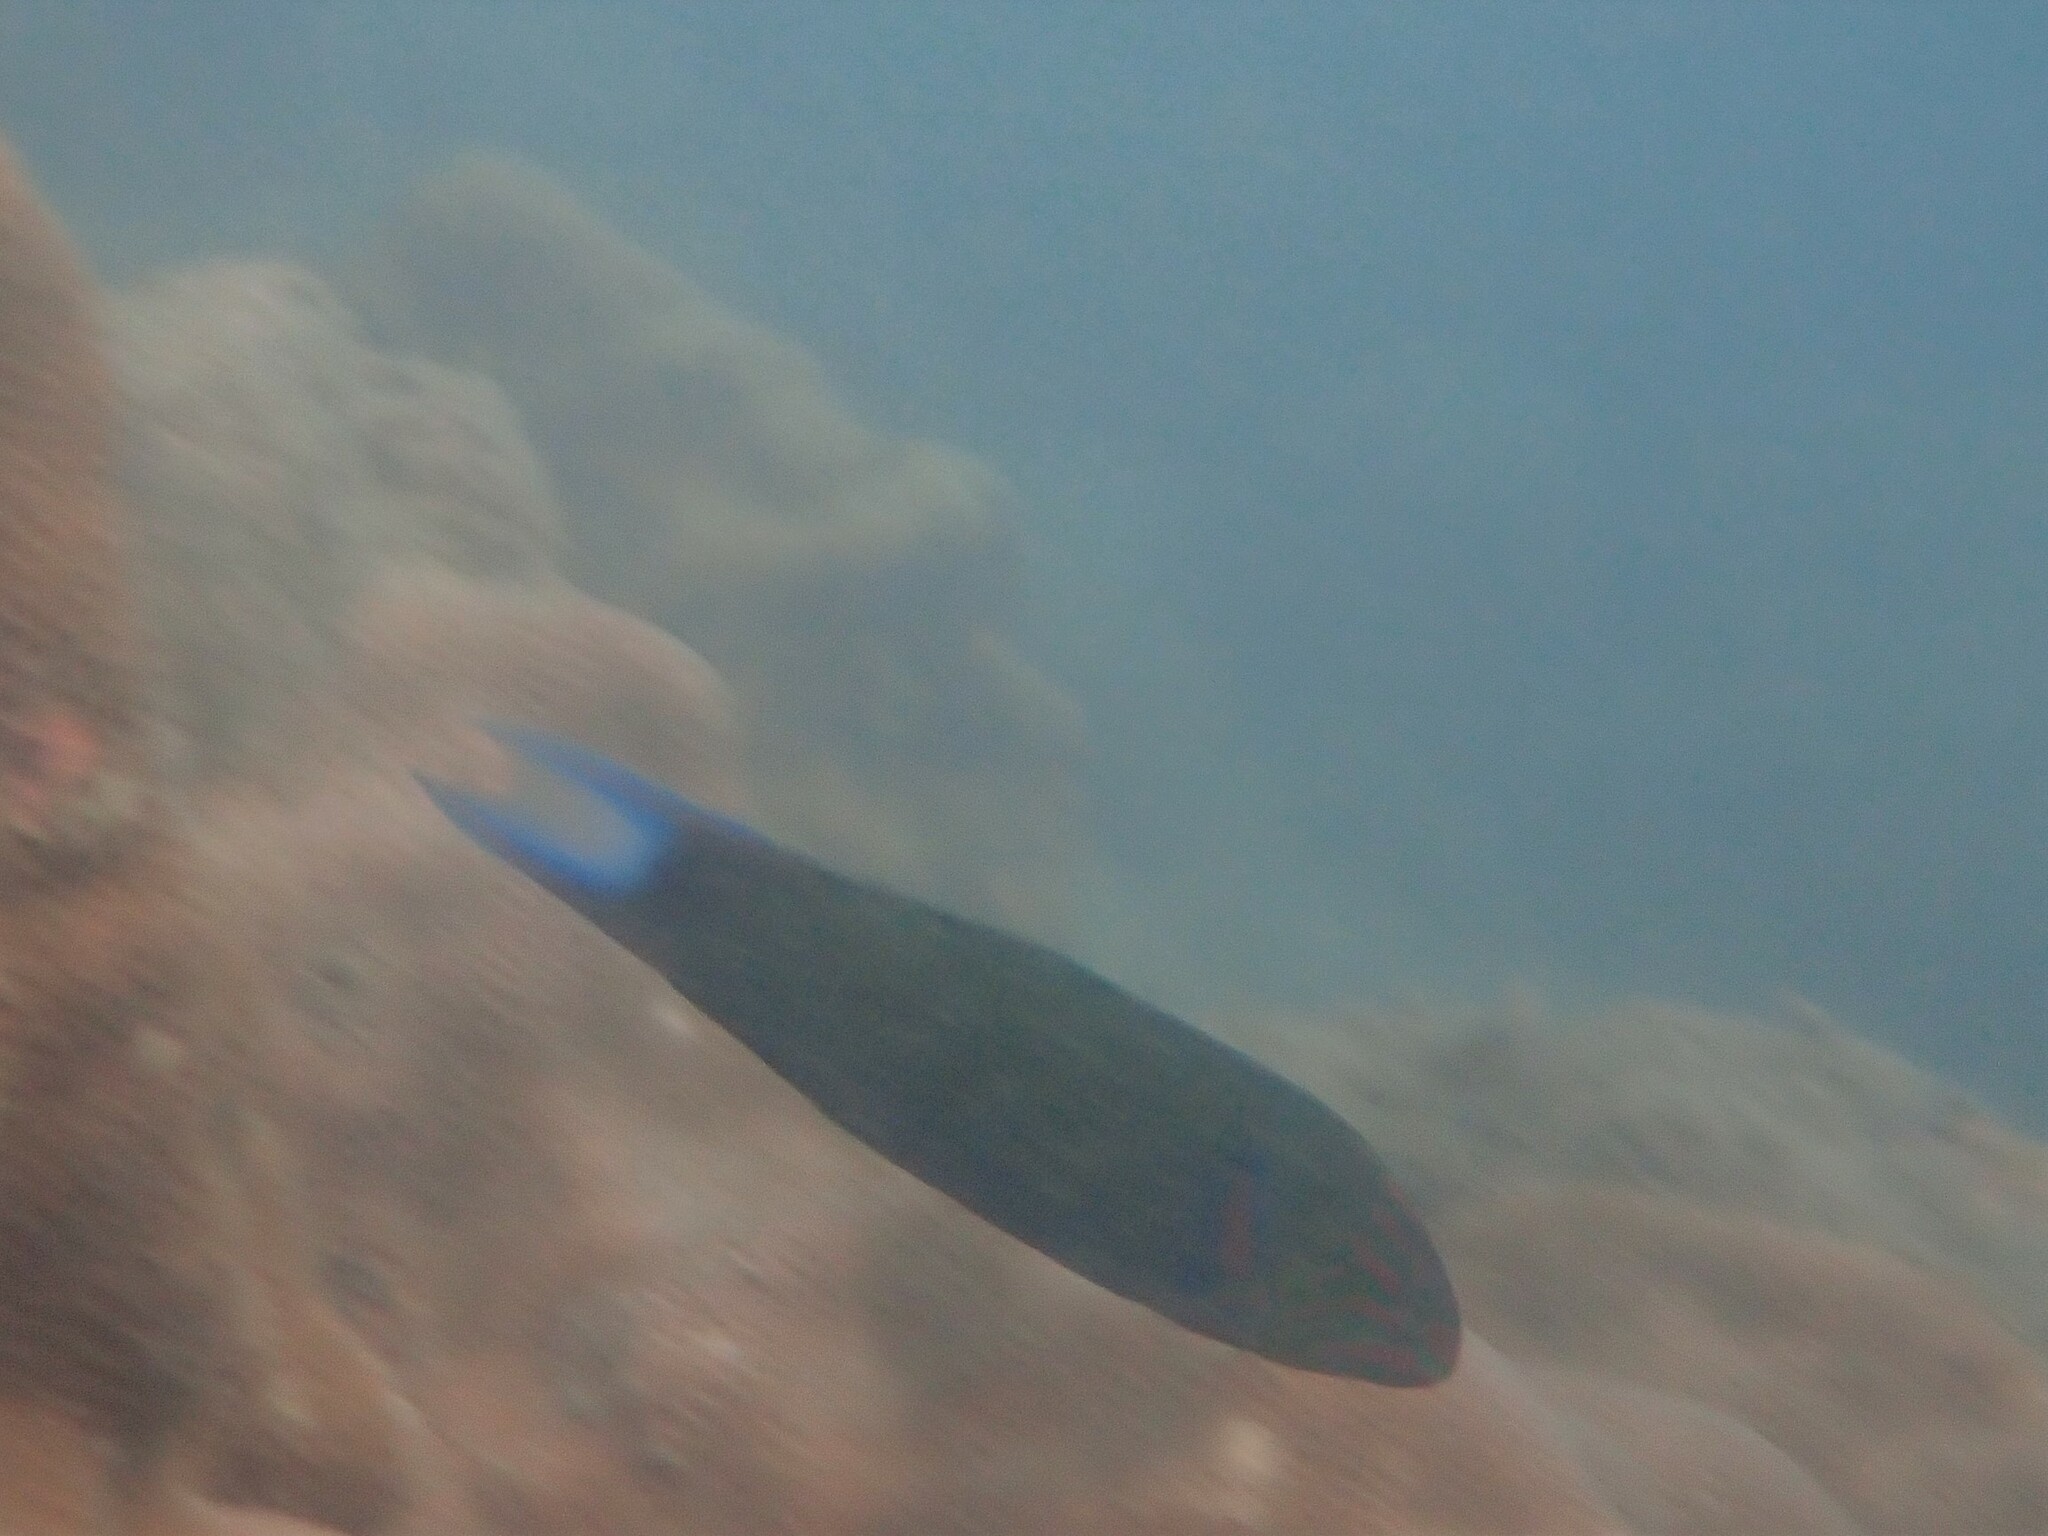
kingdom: Animalia
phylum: Chordata
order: Perciformes
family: Labridae
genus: Thalassoma
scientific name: Thalassoma lunare
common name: Blue wrasse
